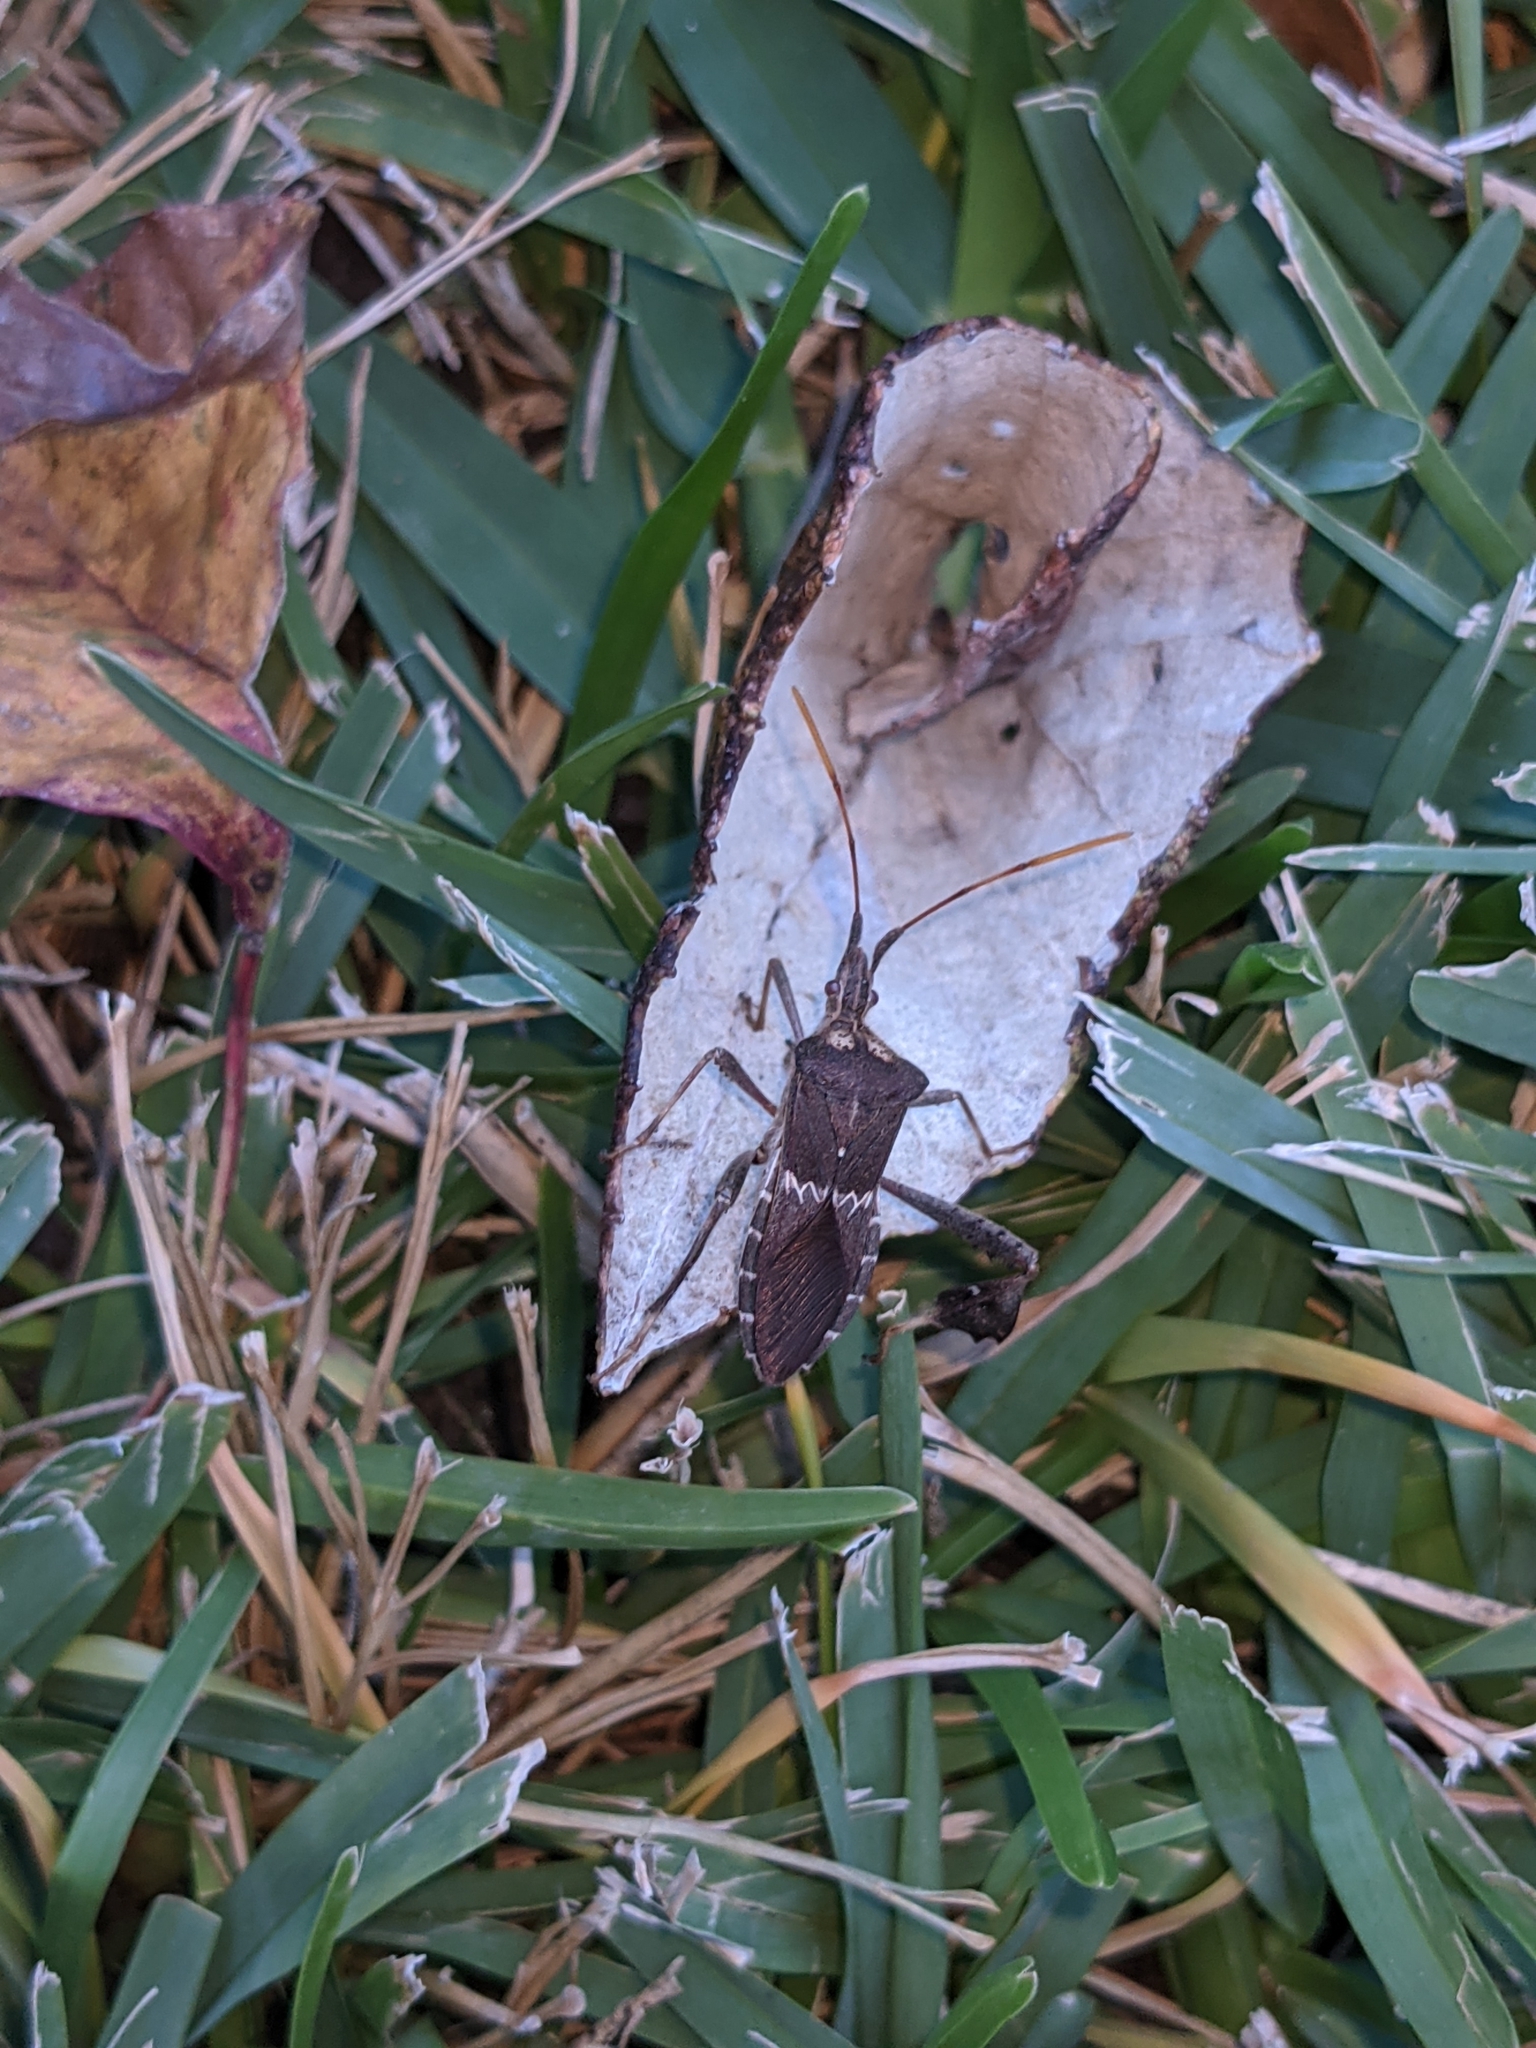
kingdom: Animalia
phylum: Arthropoda
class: Insecta
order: Hemiptera
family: Coreidae
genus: Leptoglossus
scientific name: Leptoglossus zonatus
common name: Large-legged bug
